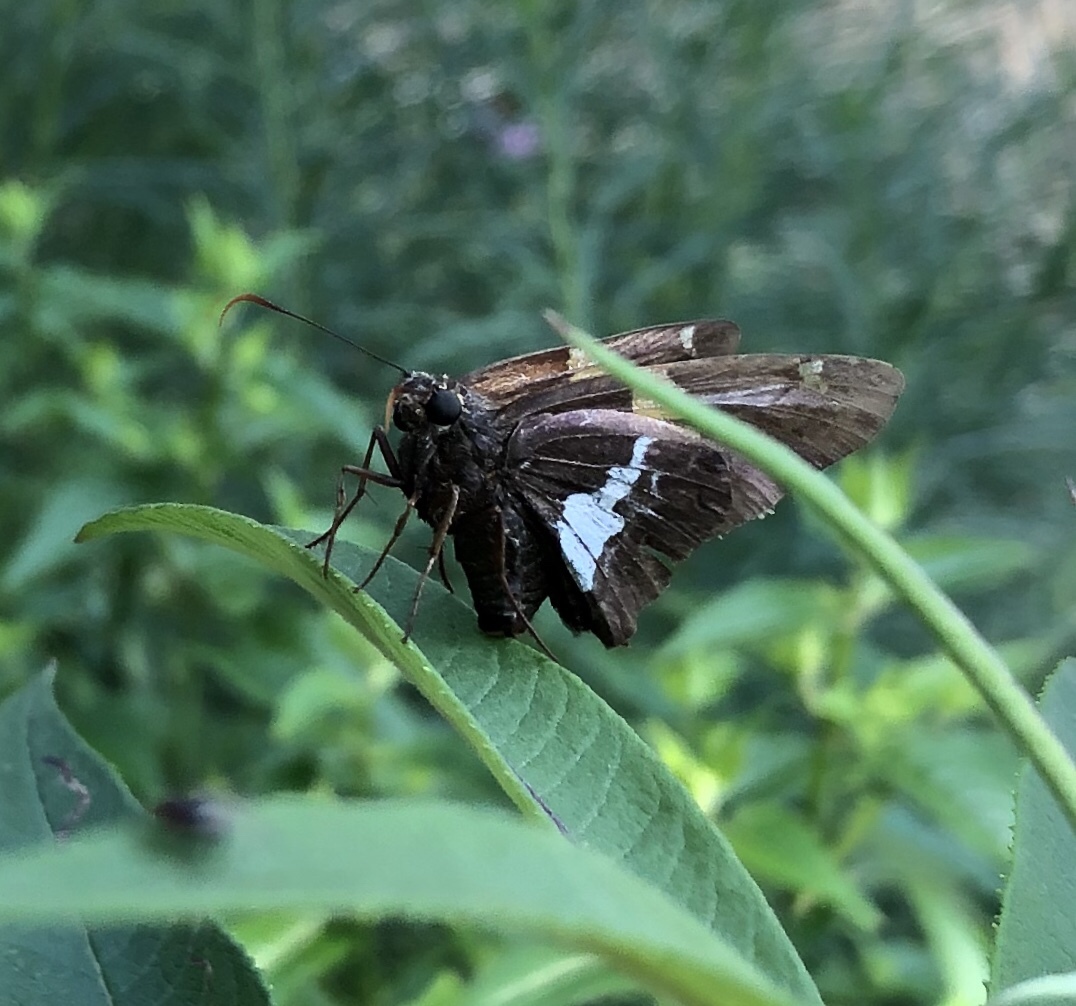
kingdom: Animalia
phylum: Arthropoda
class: Insecta
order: Lepidoptera
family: Hesperiidae
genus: Epargyreus
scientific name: Epargyreus clarus
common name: Silver-spotted skipper
